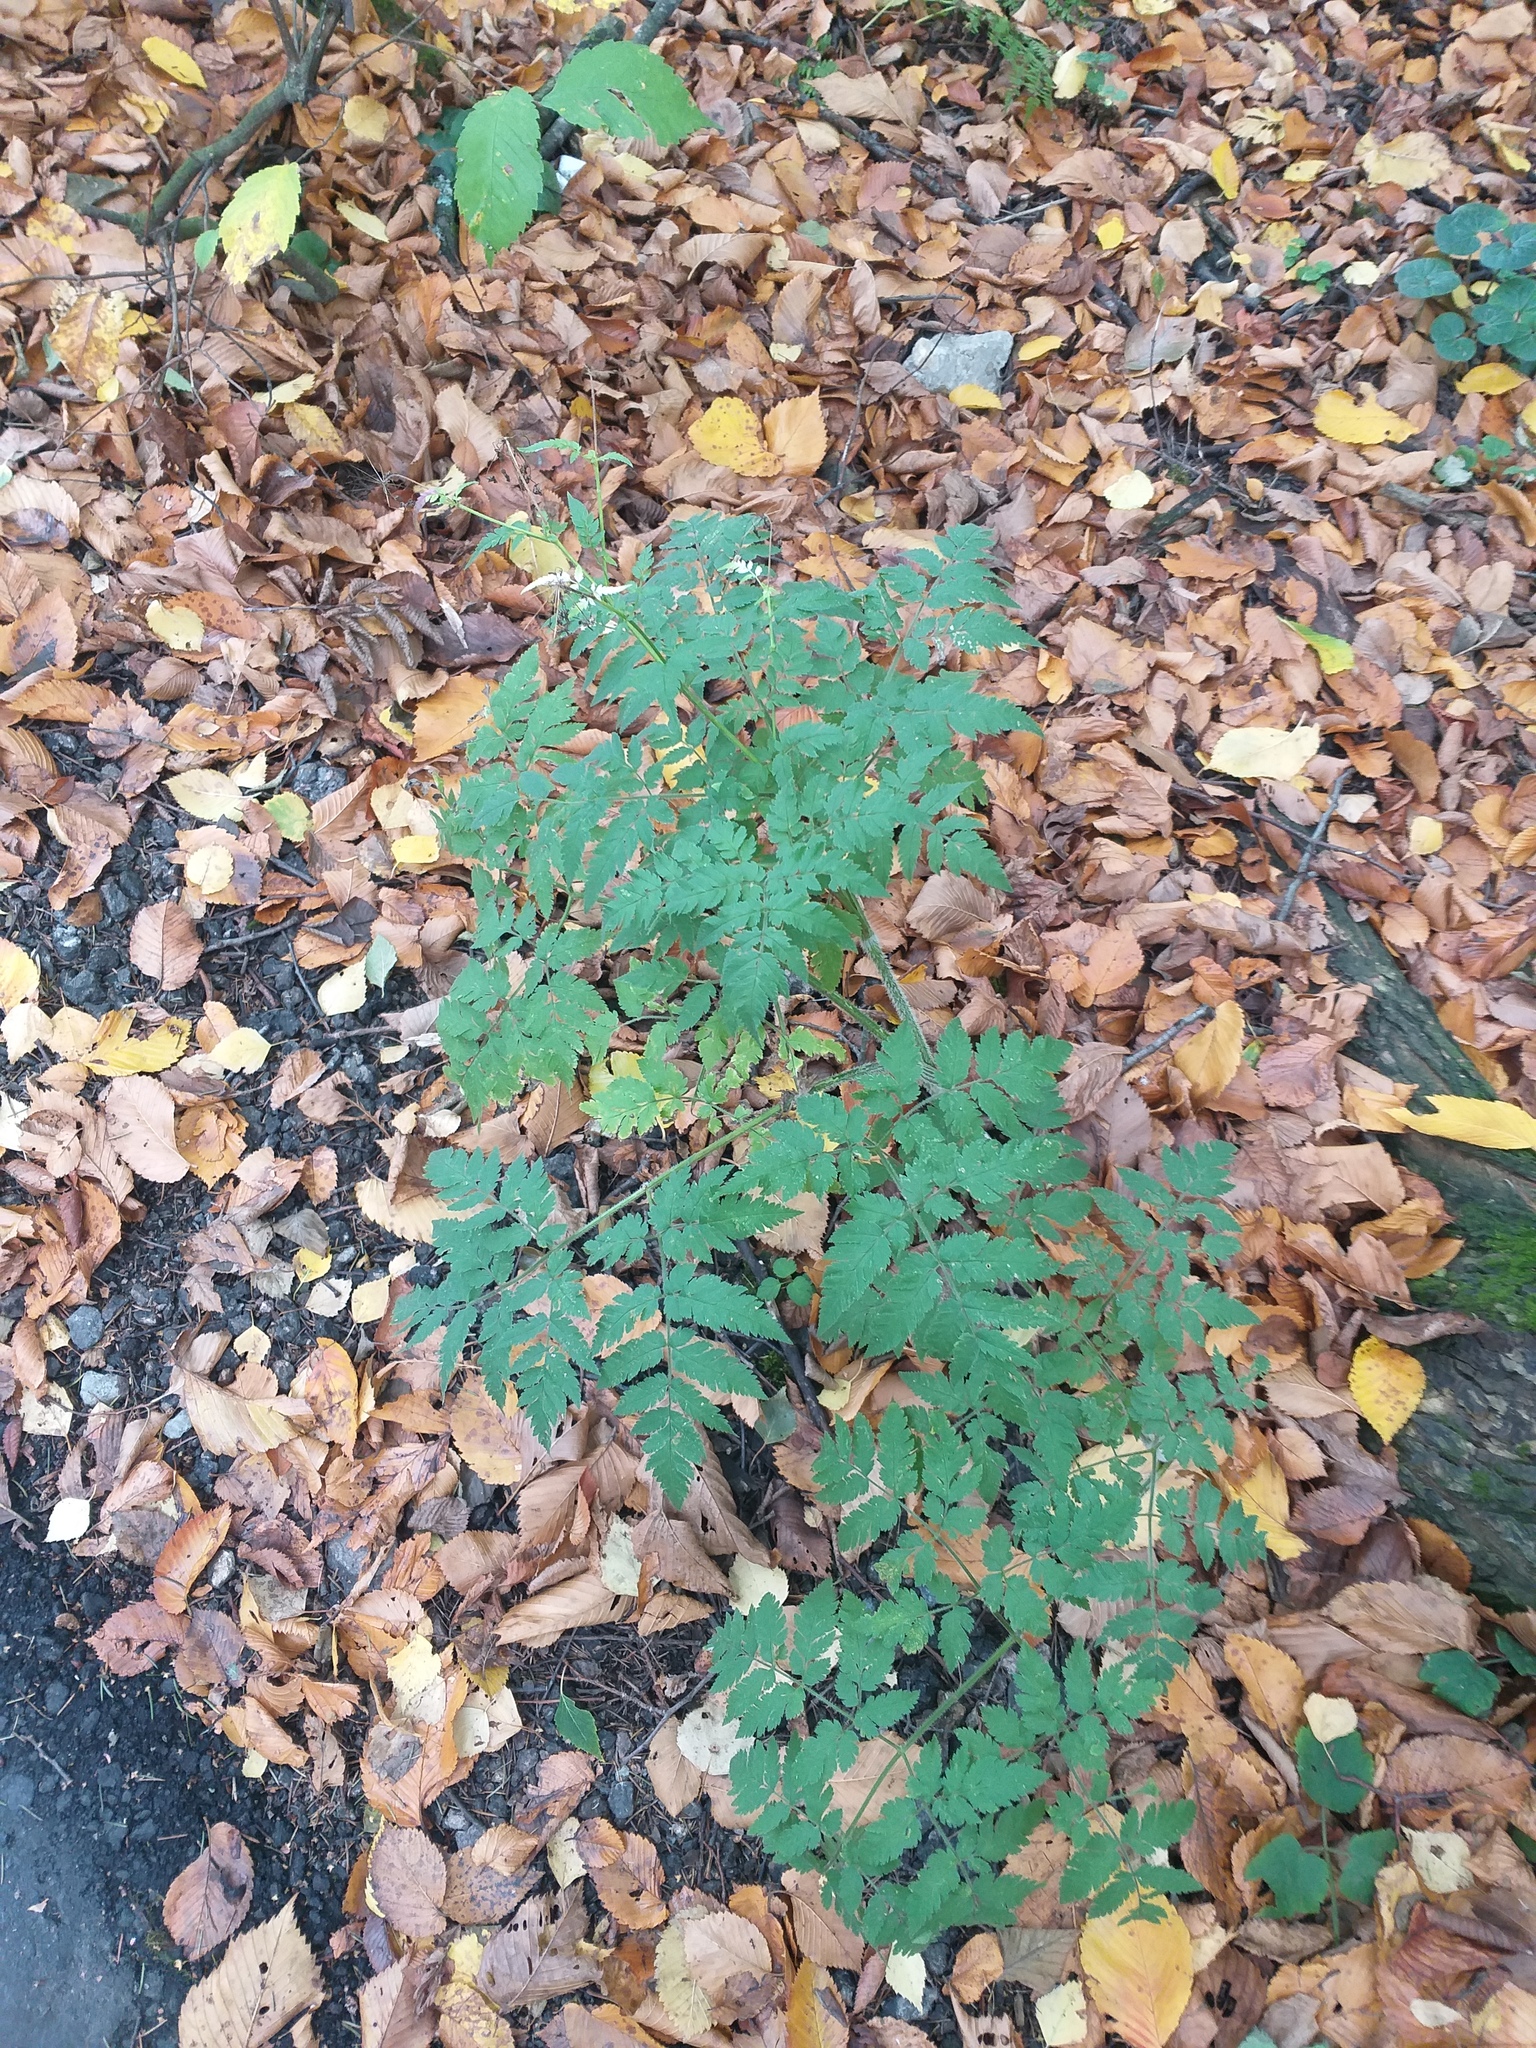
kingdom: Plantae
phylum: Tracheophyta
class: Magnoliopsida
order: Apiales
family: Apiaceae
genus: Chaerophyllum
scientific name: Chaerophyllum aureum
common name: Golden chervil
